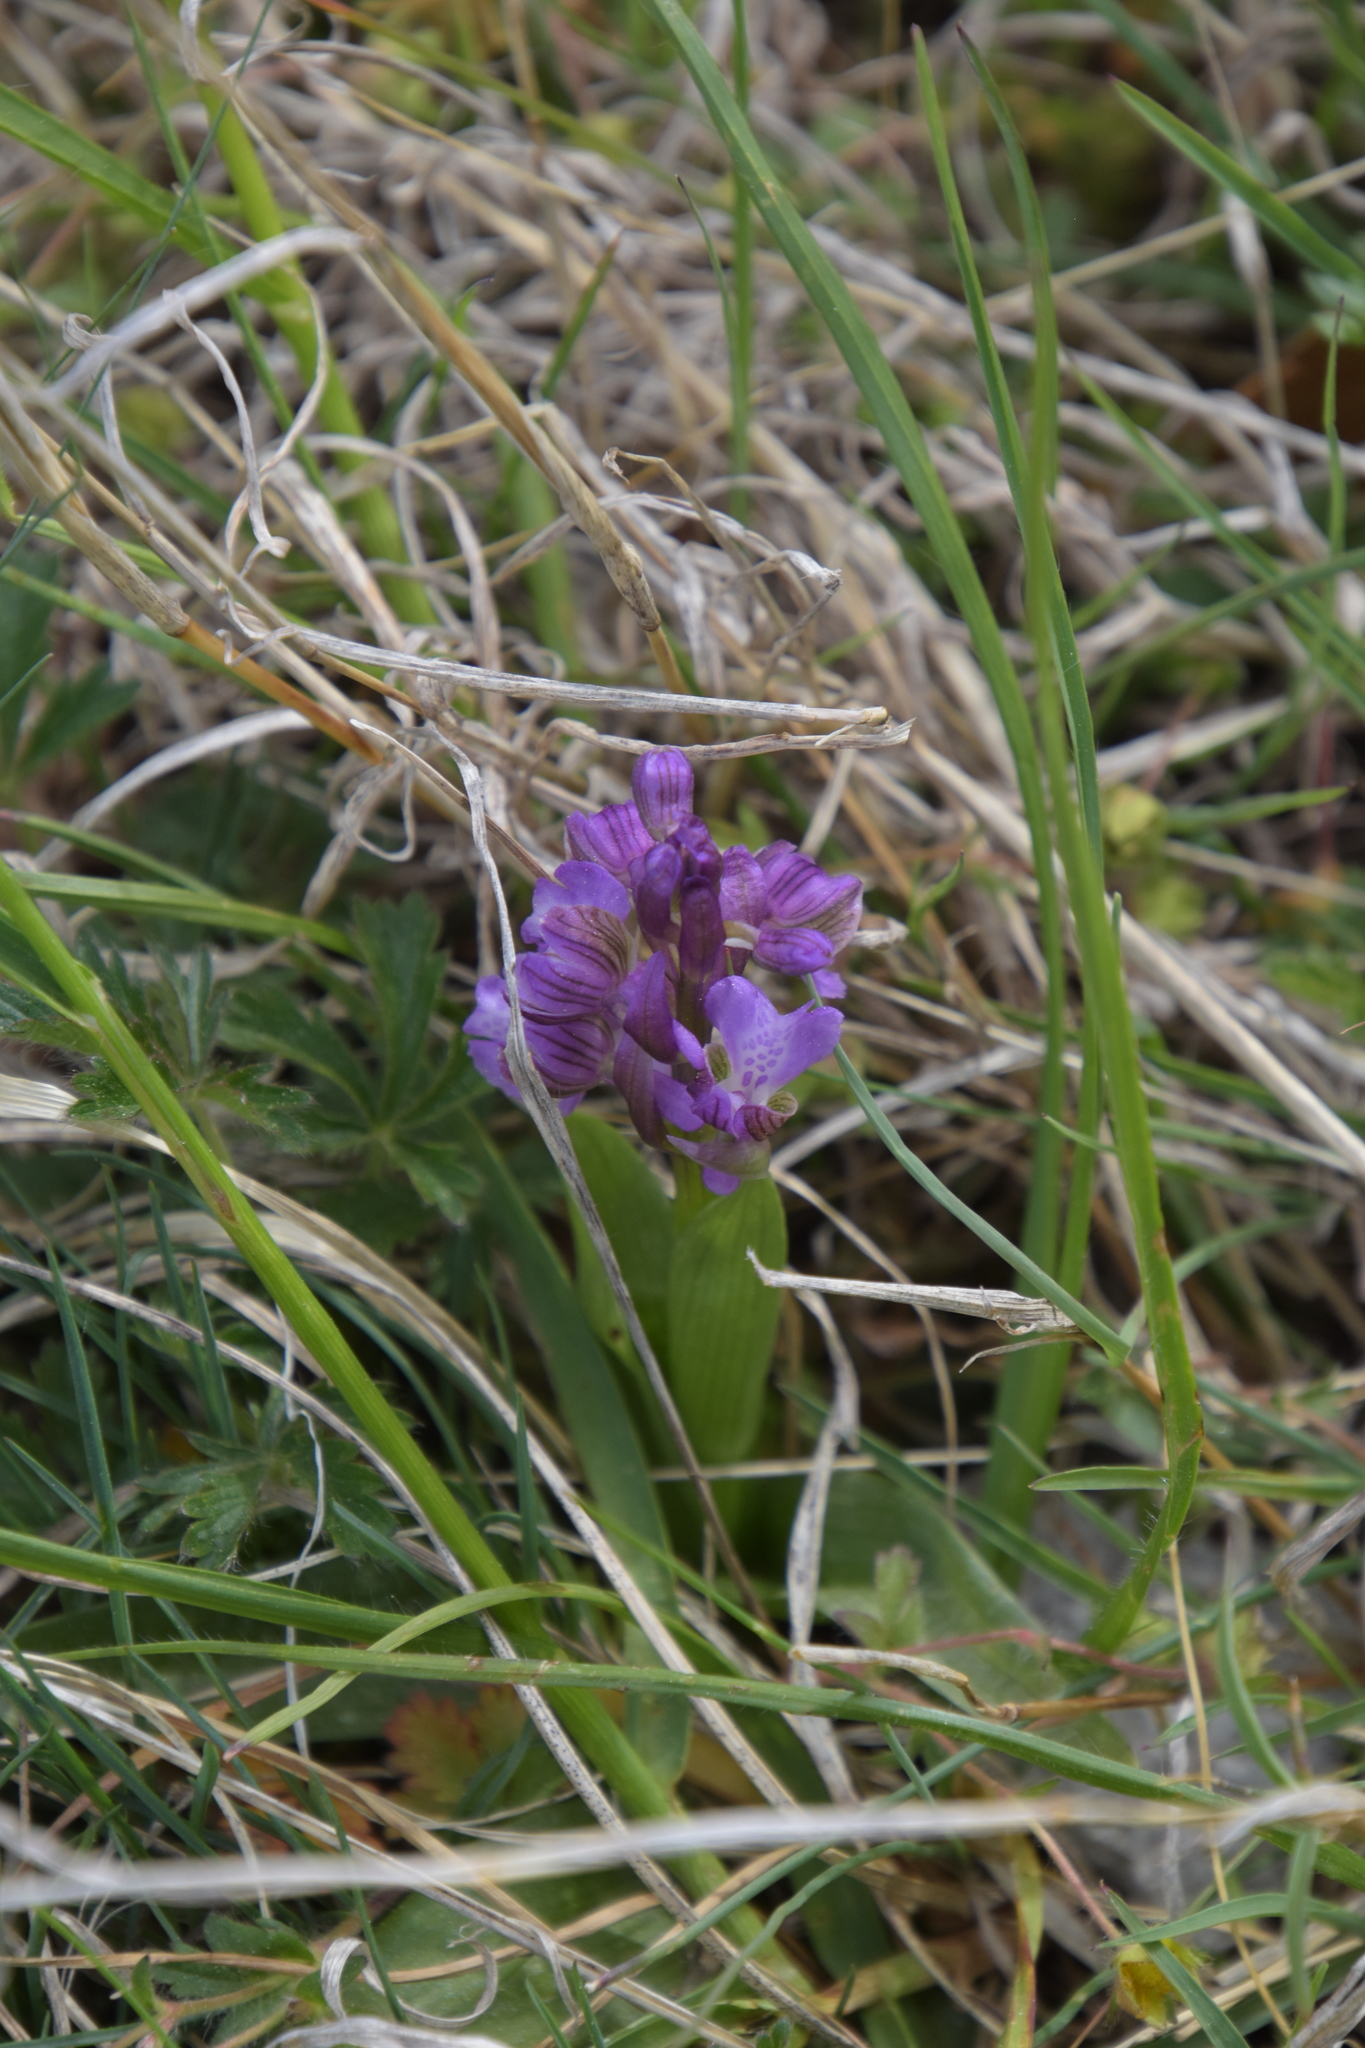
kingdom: Plantae
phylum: Tracheophyta
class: Liliopsida
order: Asparagales
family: Orchidaceae
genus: Anacamptis
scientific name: Anacamptis morio
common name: Green-winged orchid
